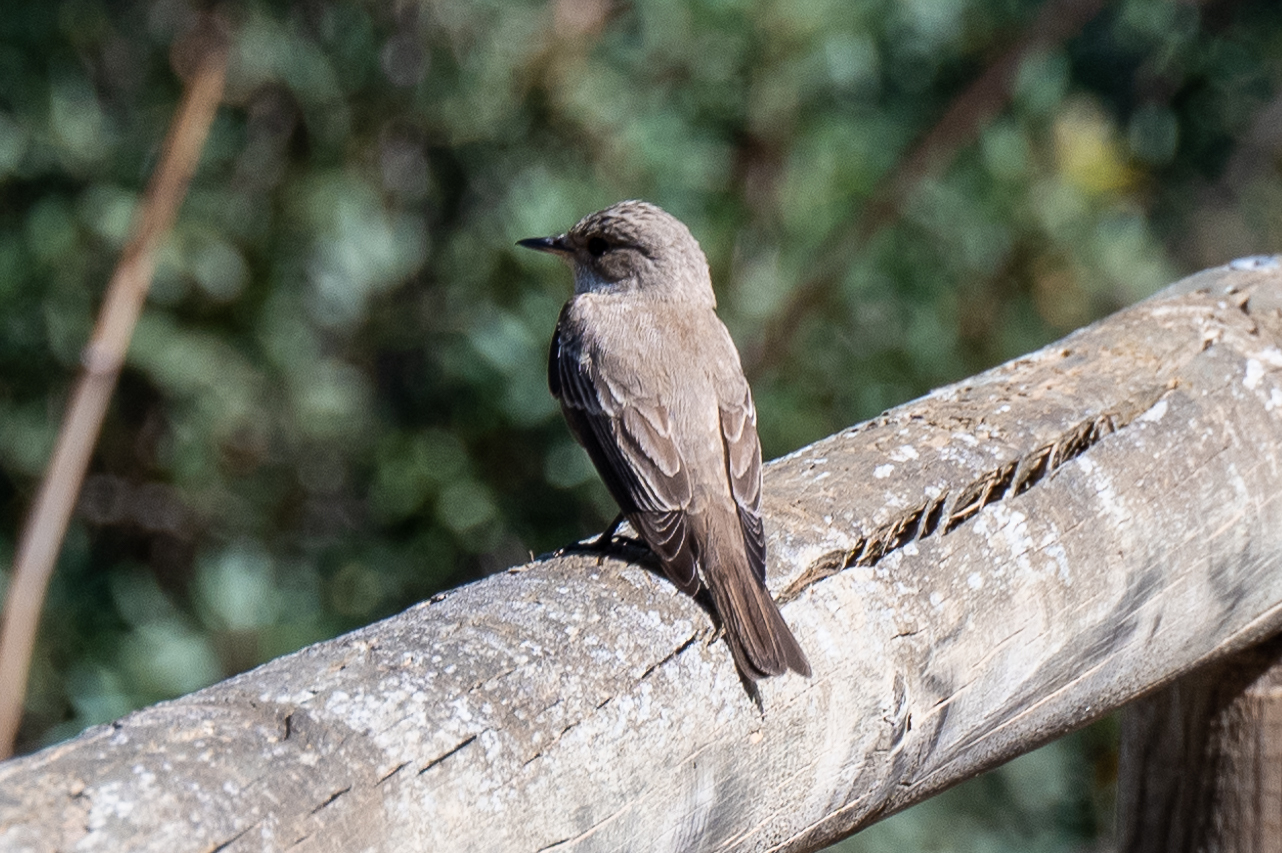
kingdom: Animalia
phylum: Chordata
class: Aves
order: Passeriformes
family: Muscicapidae
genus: Muscicapa
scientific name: Muscicapa striata
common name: Spotted flycatcher
